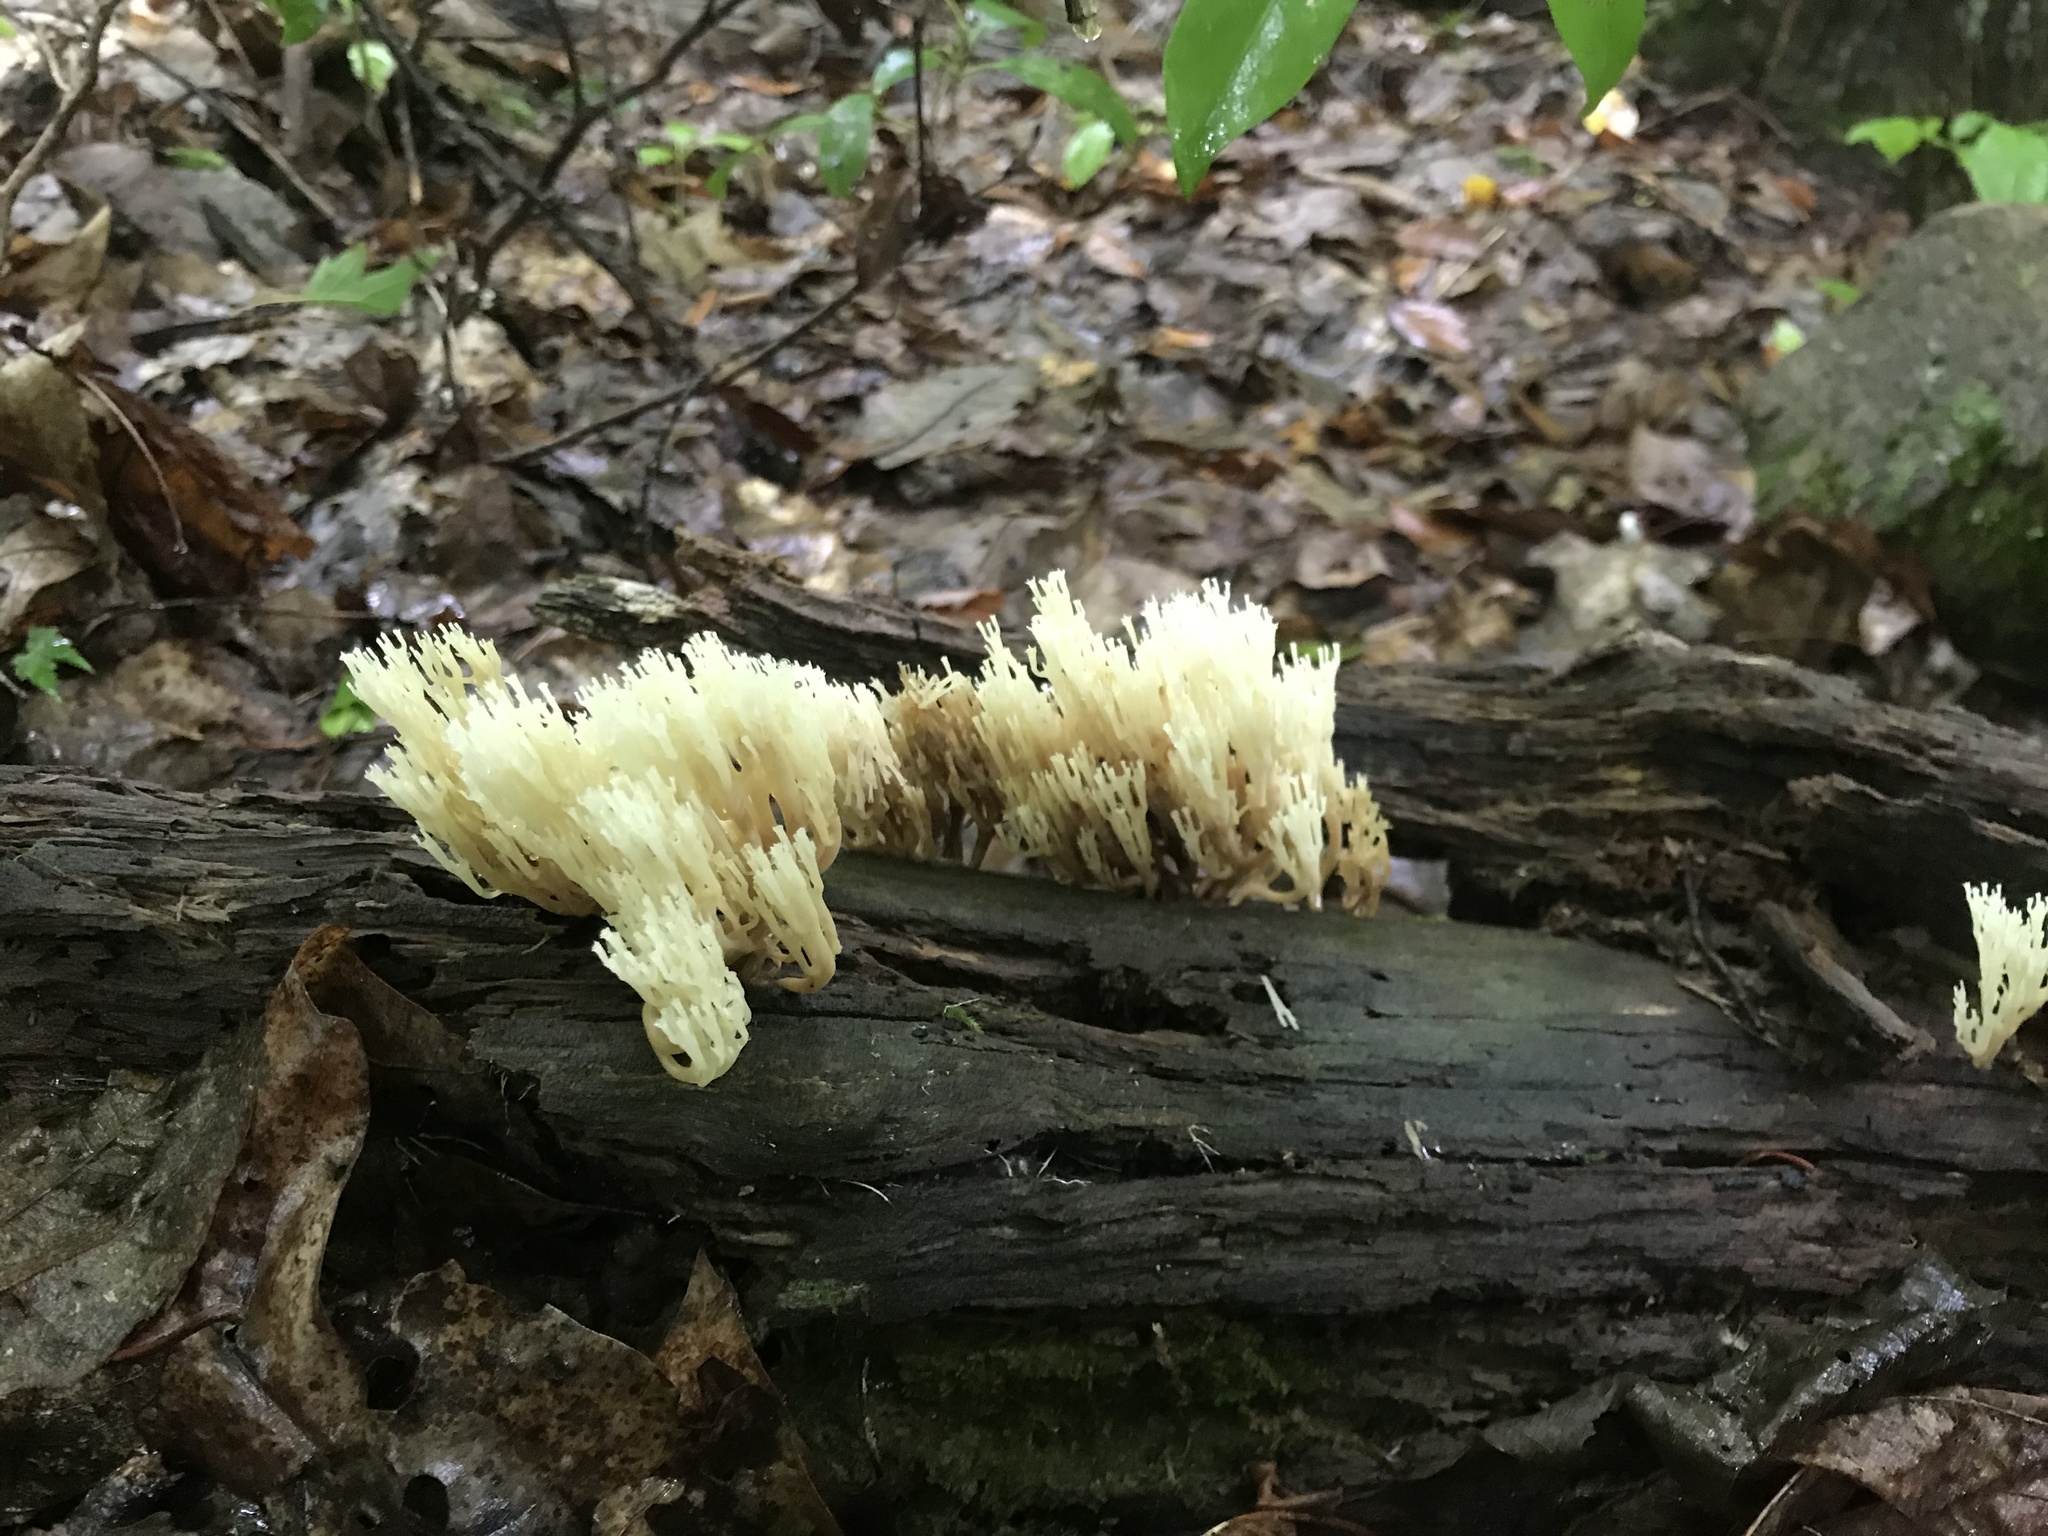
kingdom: Fungi
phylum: Basidiomycota
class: Agaricomycetes
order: Russulales
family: Auriscalpiaceae
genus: Artomyces
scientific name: Artomyces pyxidatus
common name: Crown-tipped coral fungus
